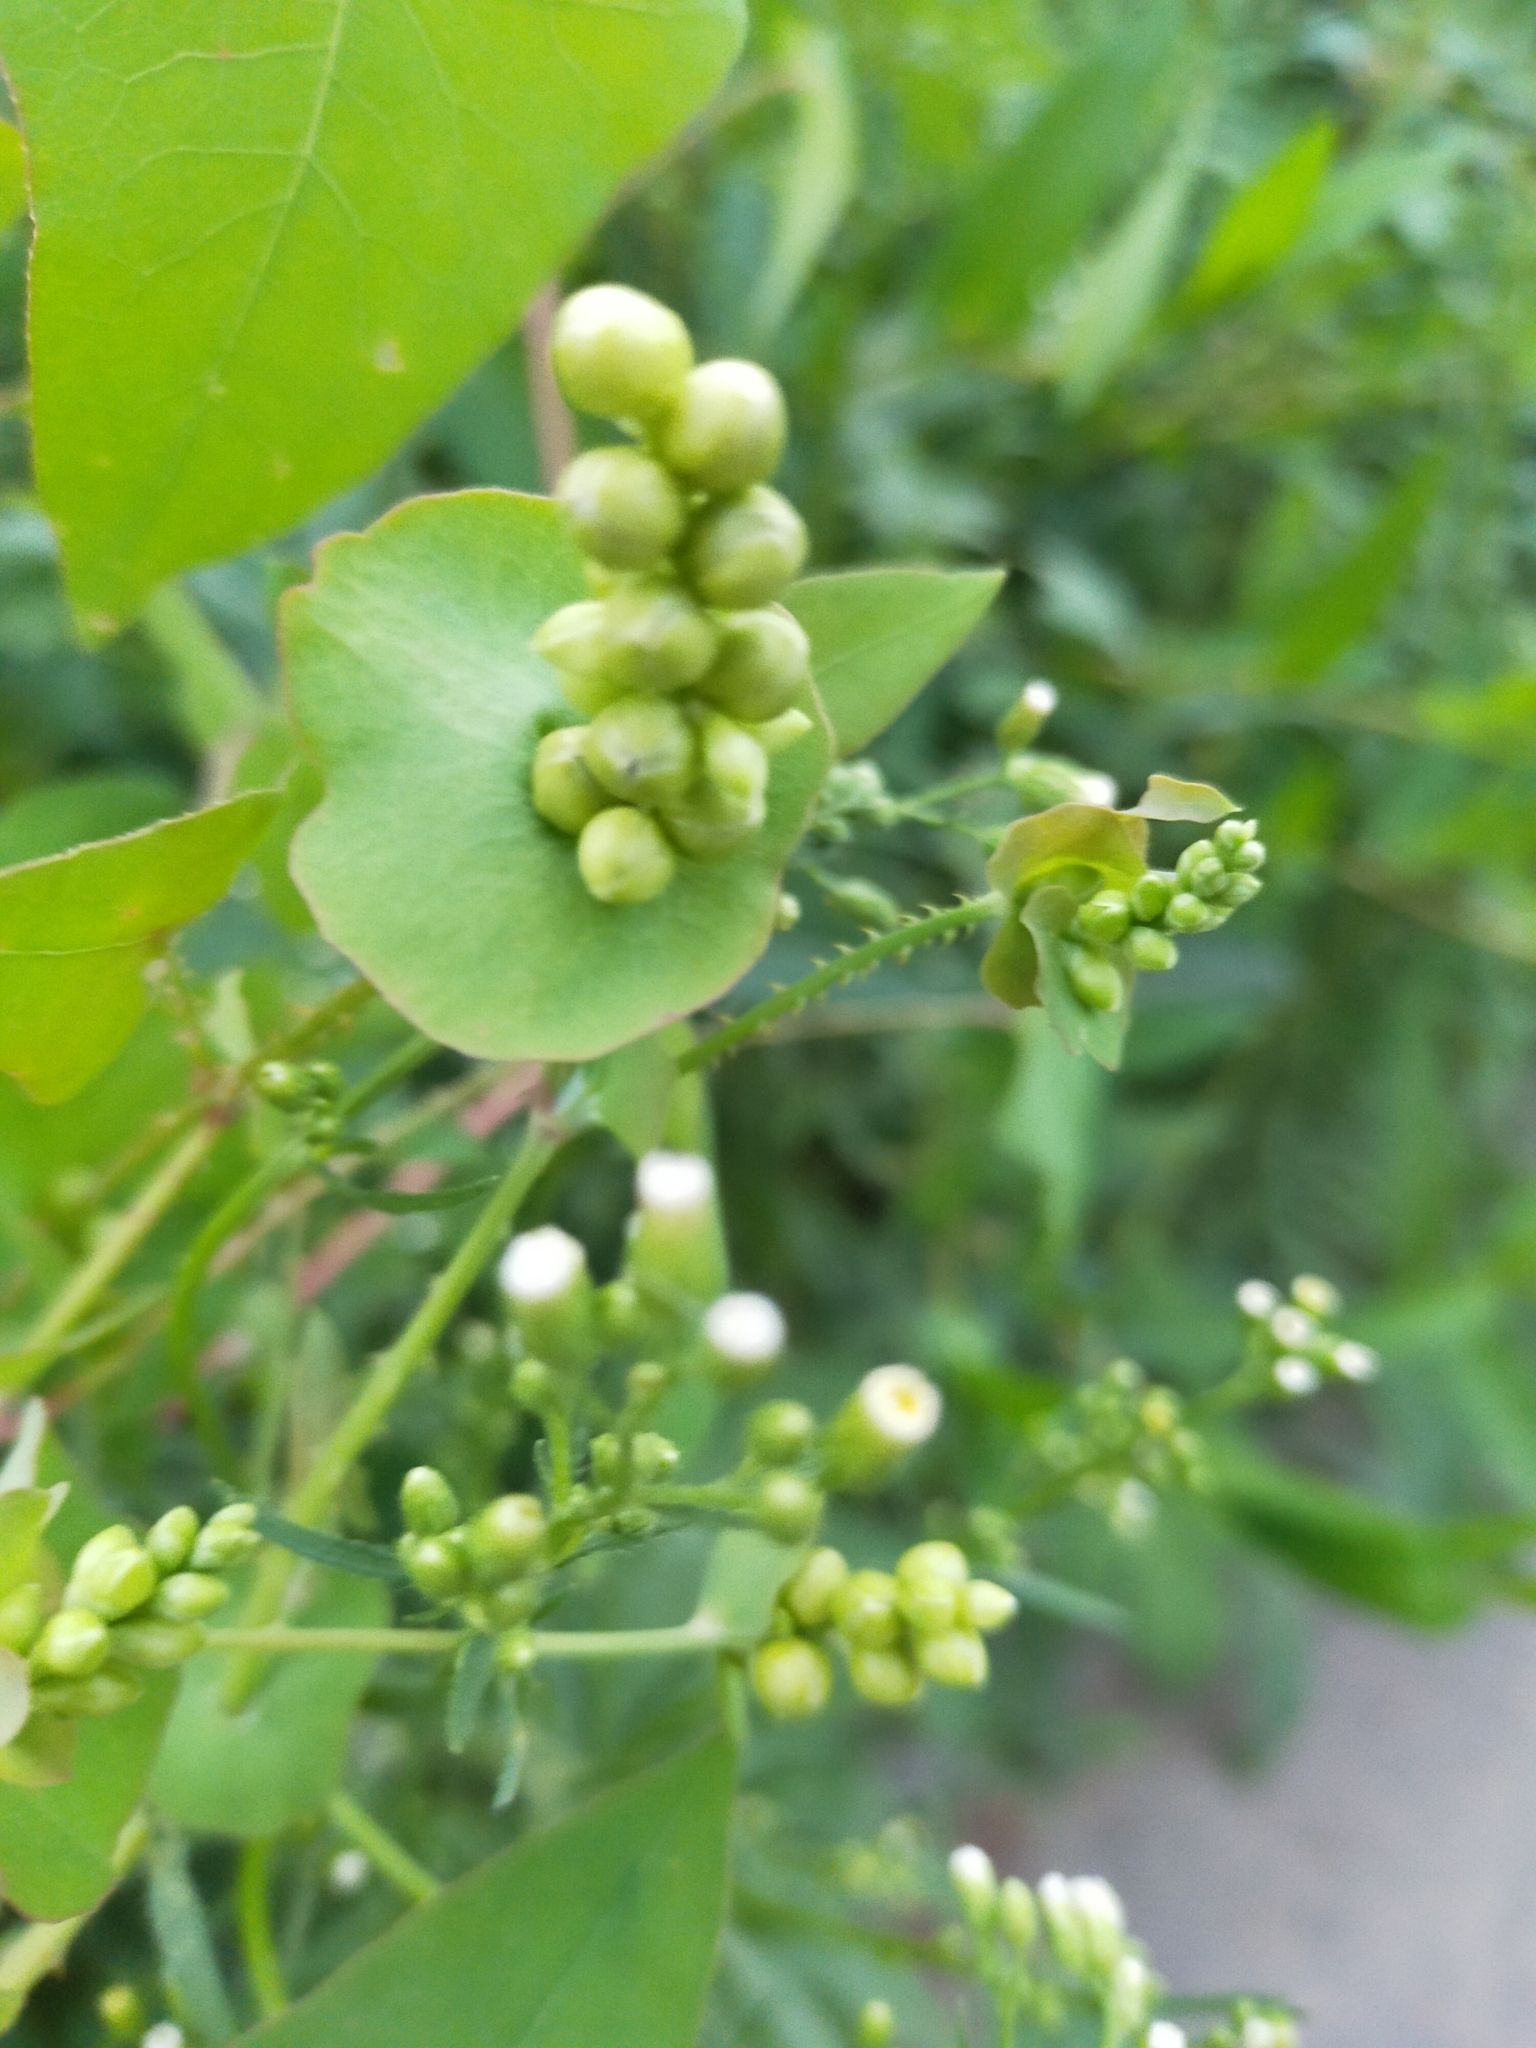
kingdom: Plantae
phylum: Tracheophyta
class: Magnoliopsida
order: Caryophyllales
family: Polygonaceae
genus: Persicaria
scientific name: Persicaria perfoliata
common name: Asiatic tearthumb
